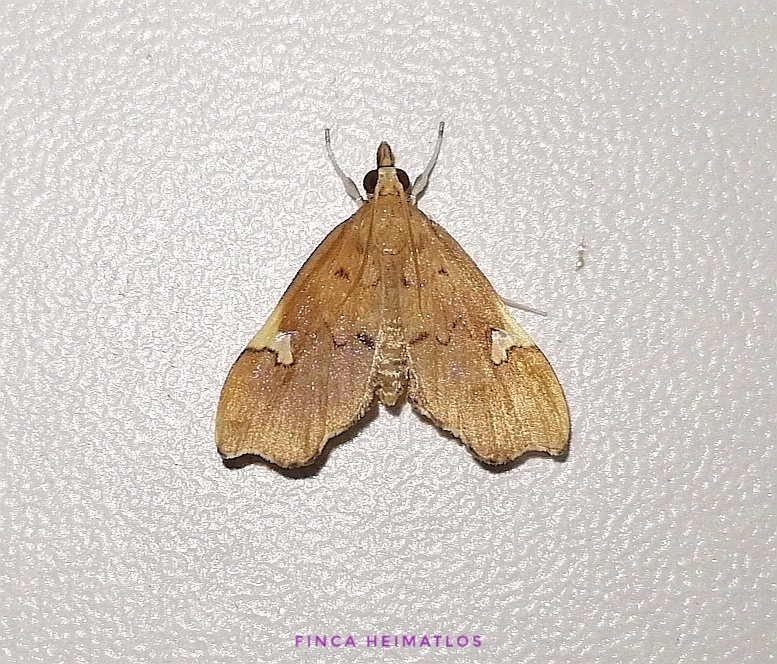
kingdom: Animalia
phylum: Arthropoda
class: Insecta
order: Lepidoptera
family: Crambidae
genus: Deuterophysa
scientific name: Deuterophysa asychanalis
